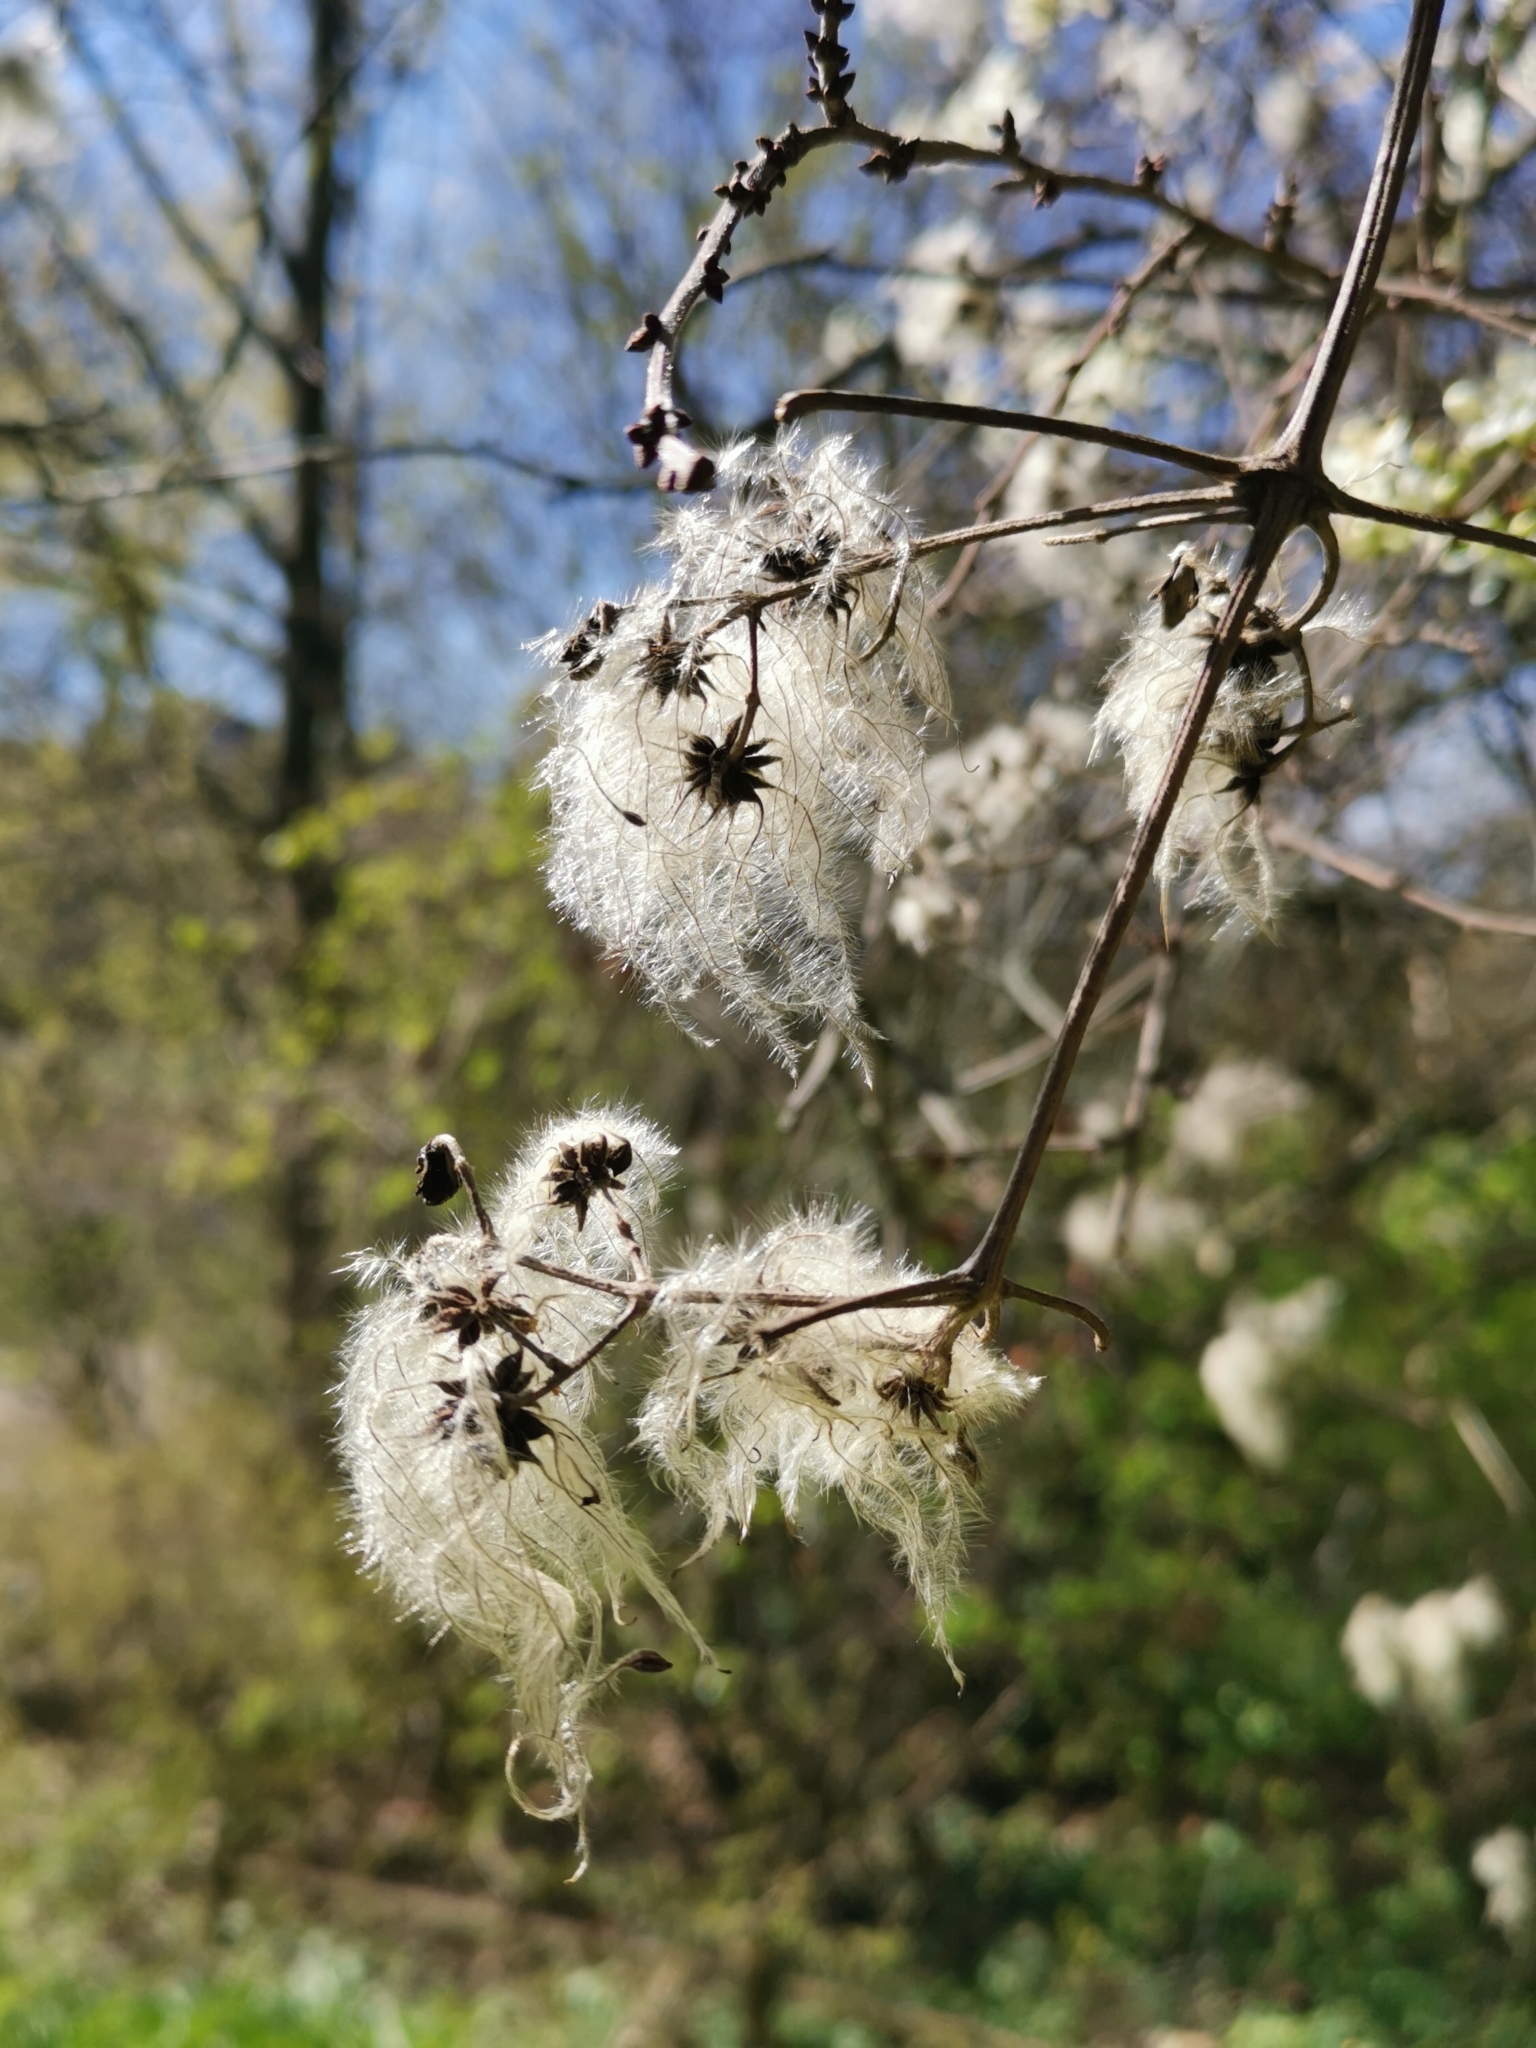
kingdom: Plantae
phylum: Tracheophyta
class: Magnoliopsida
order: Ranunculales
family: Ranunculaceae
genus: Clematis
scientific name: Clematis vitalba
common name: Evergreen clematis
